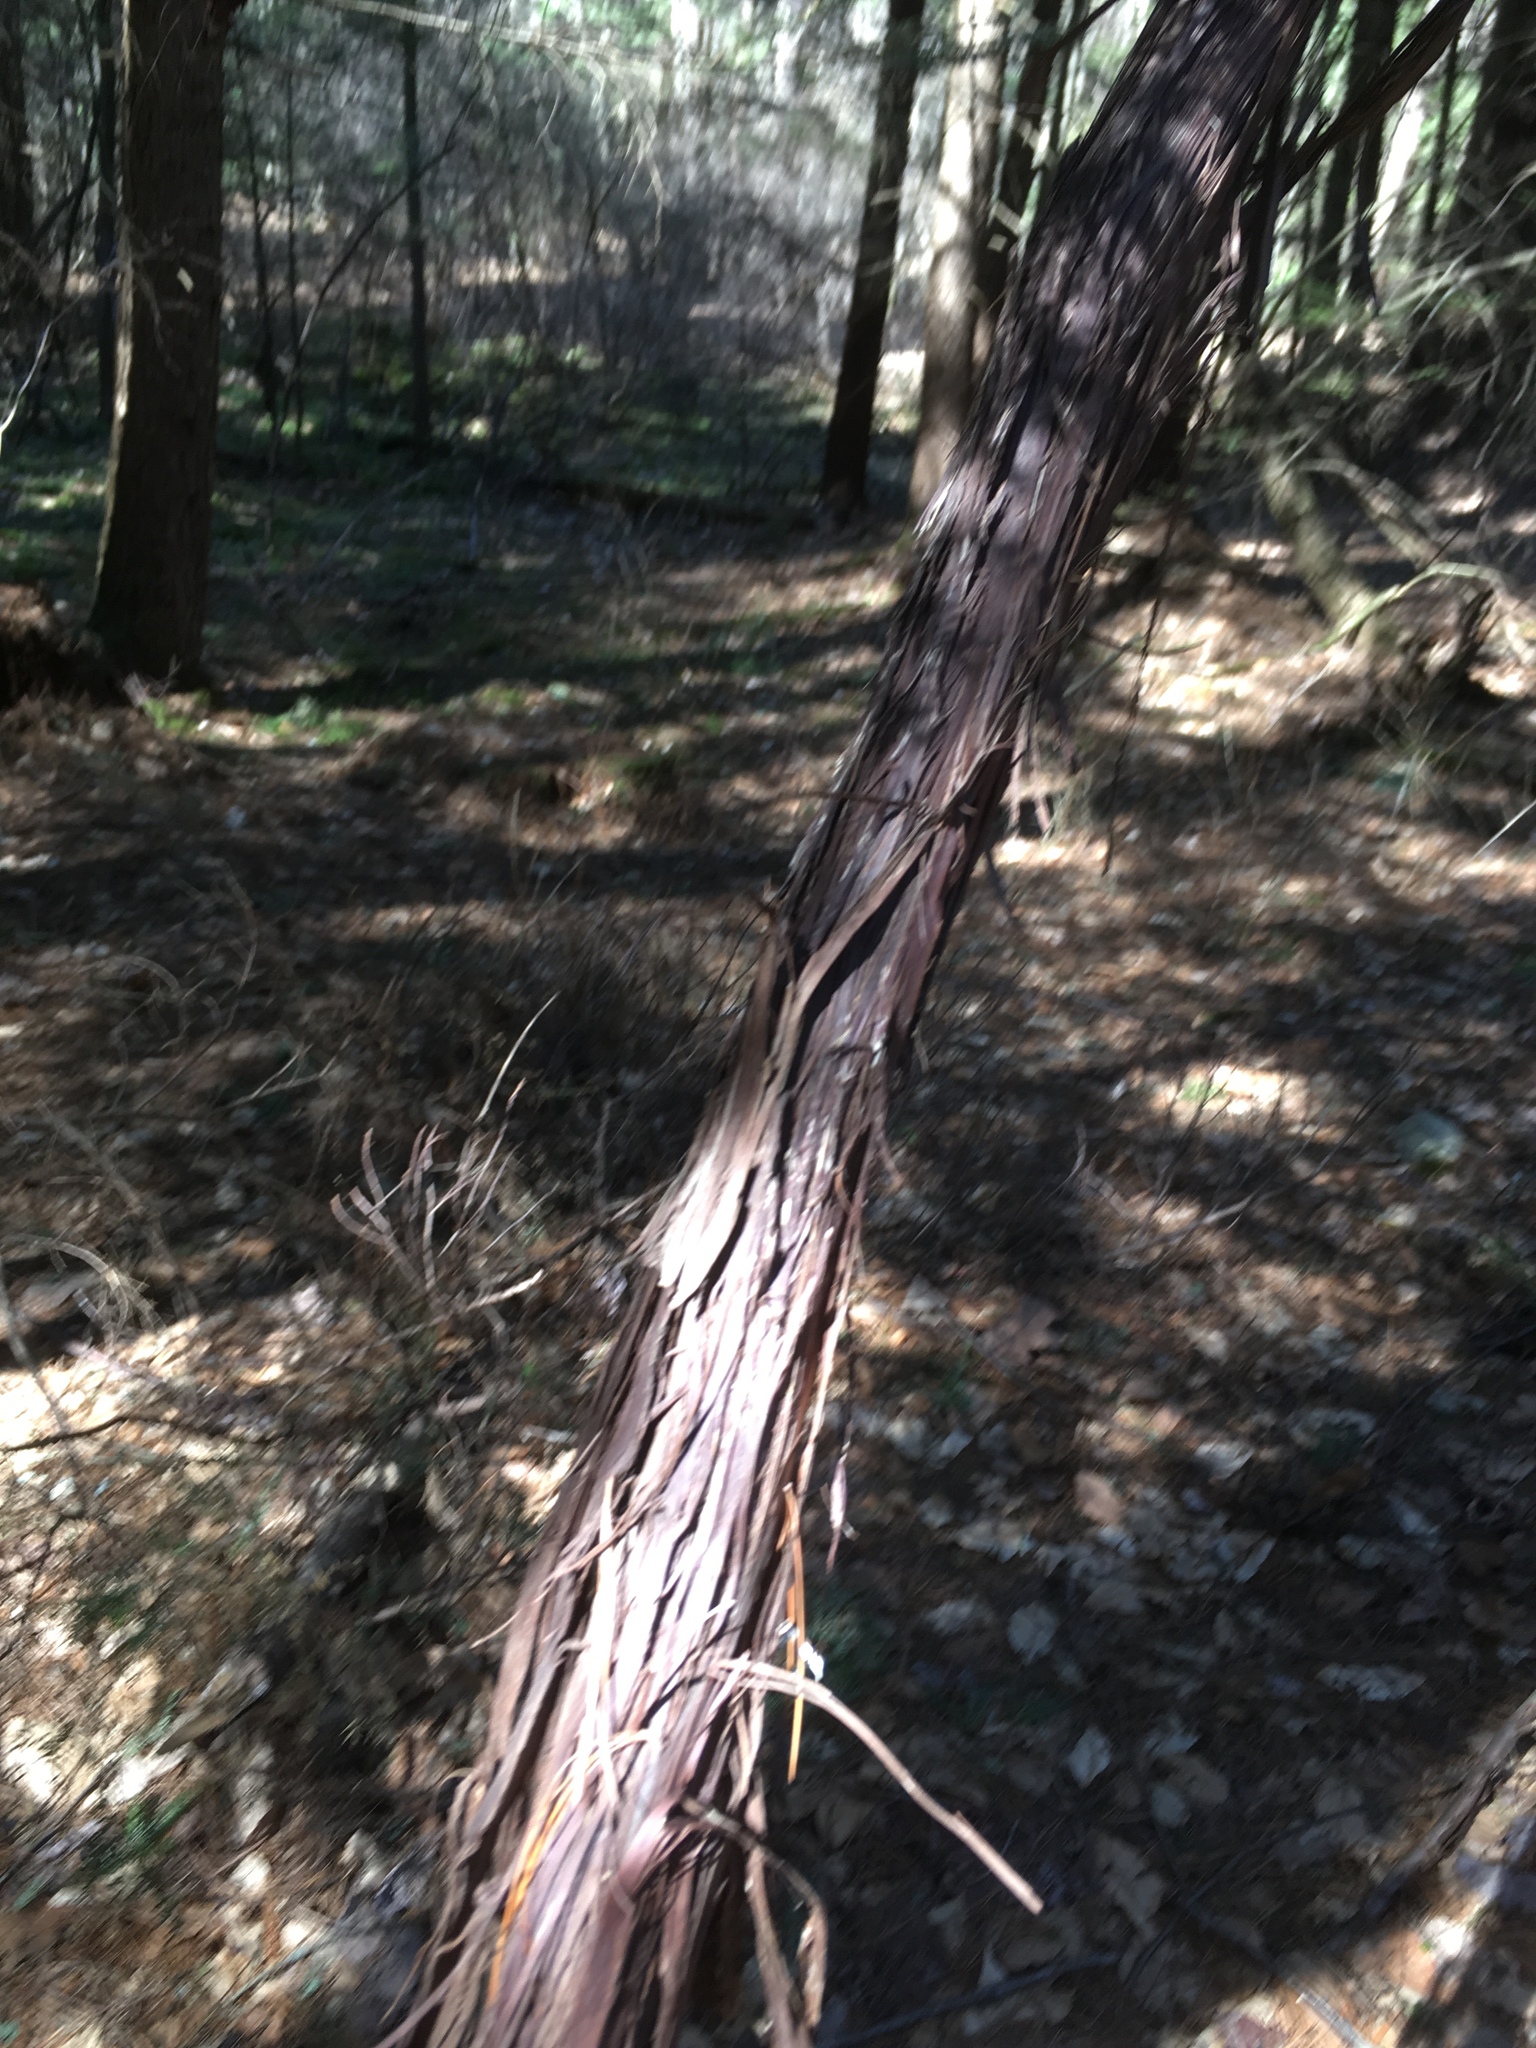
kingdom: Plantae
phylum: Tracheophyta
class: Magnoliopsida
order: Vitales
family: Vitaceae
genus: Vitis
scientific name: Vitis
